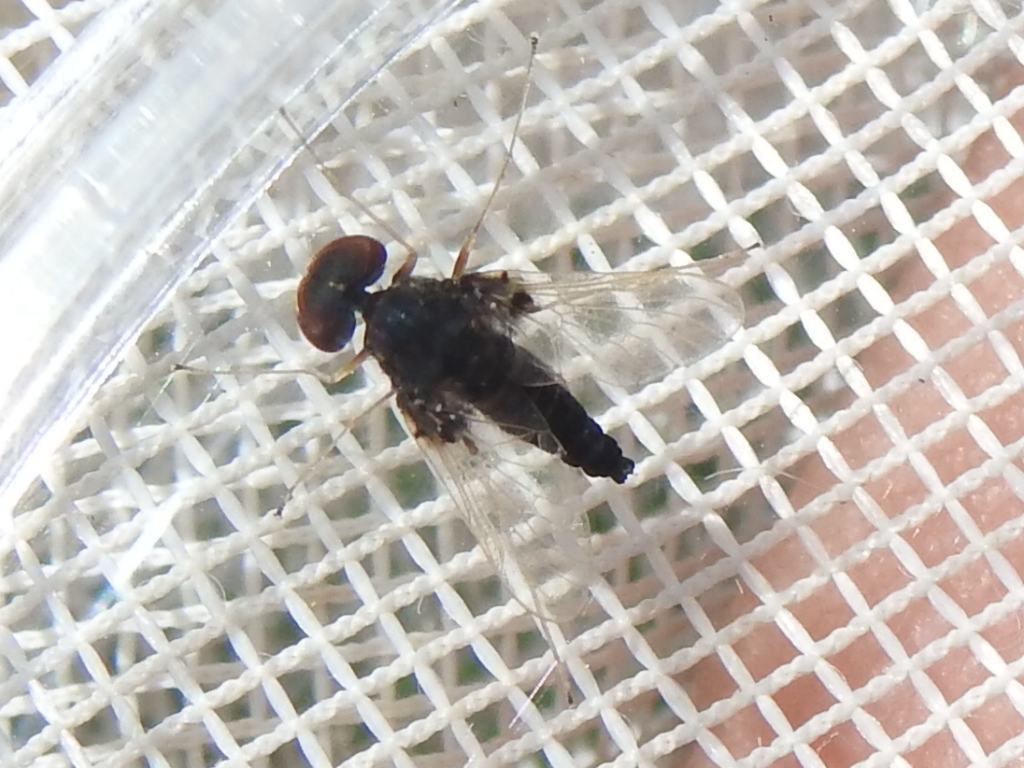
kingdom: Animalia
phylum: Arthropoda
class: Insecta
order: Diptera
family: Rhagionidae
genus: Chrysopilus
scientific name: Chrysopilus basilaris
